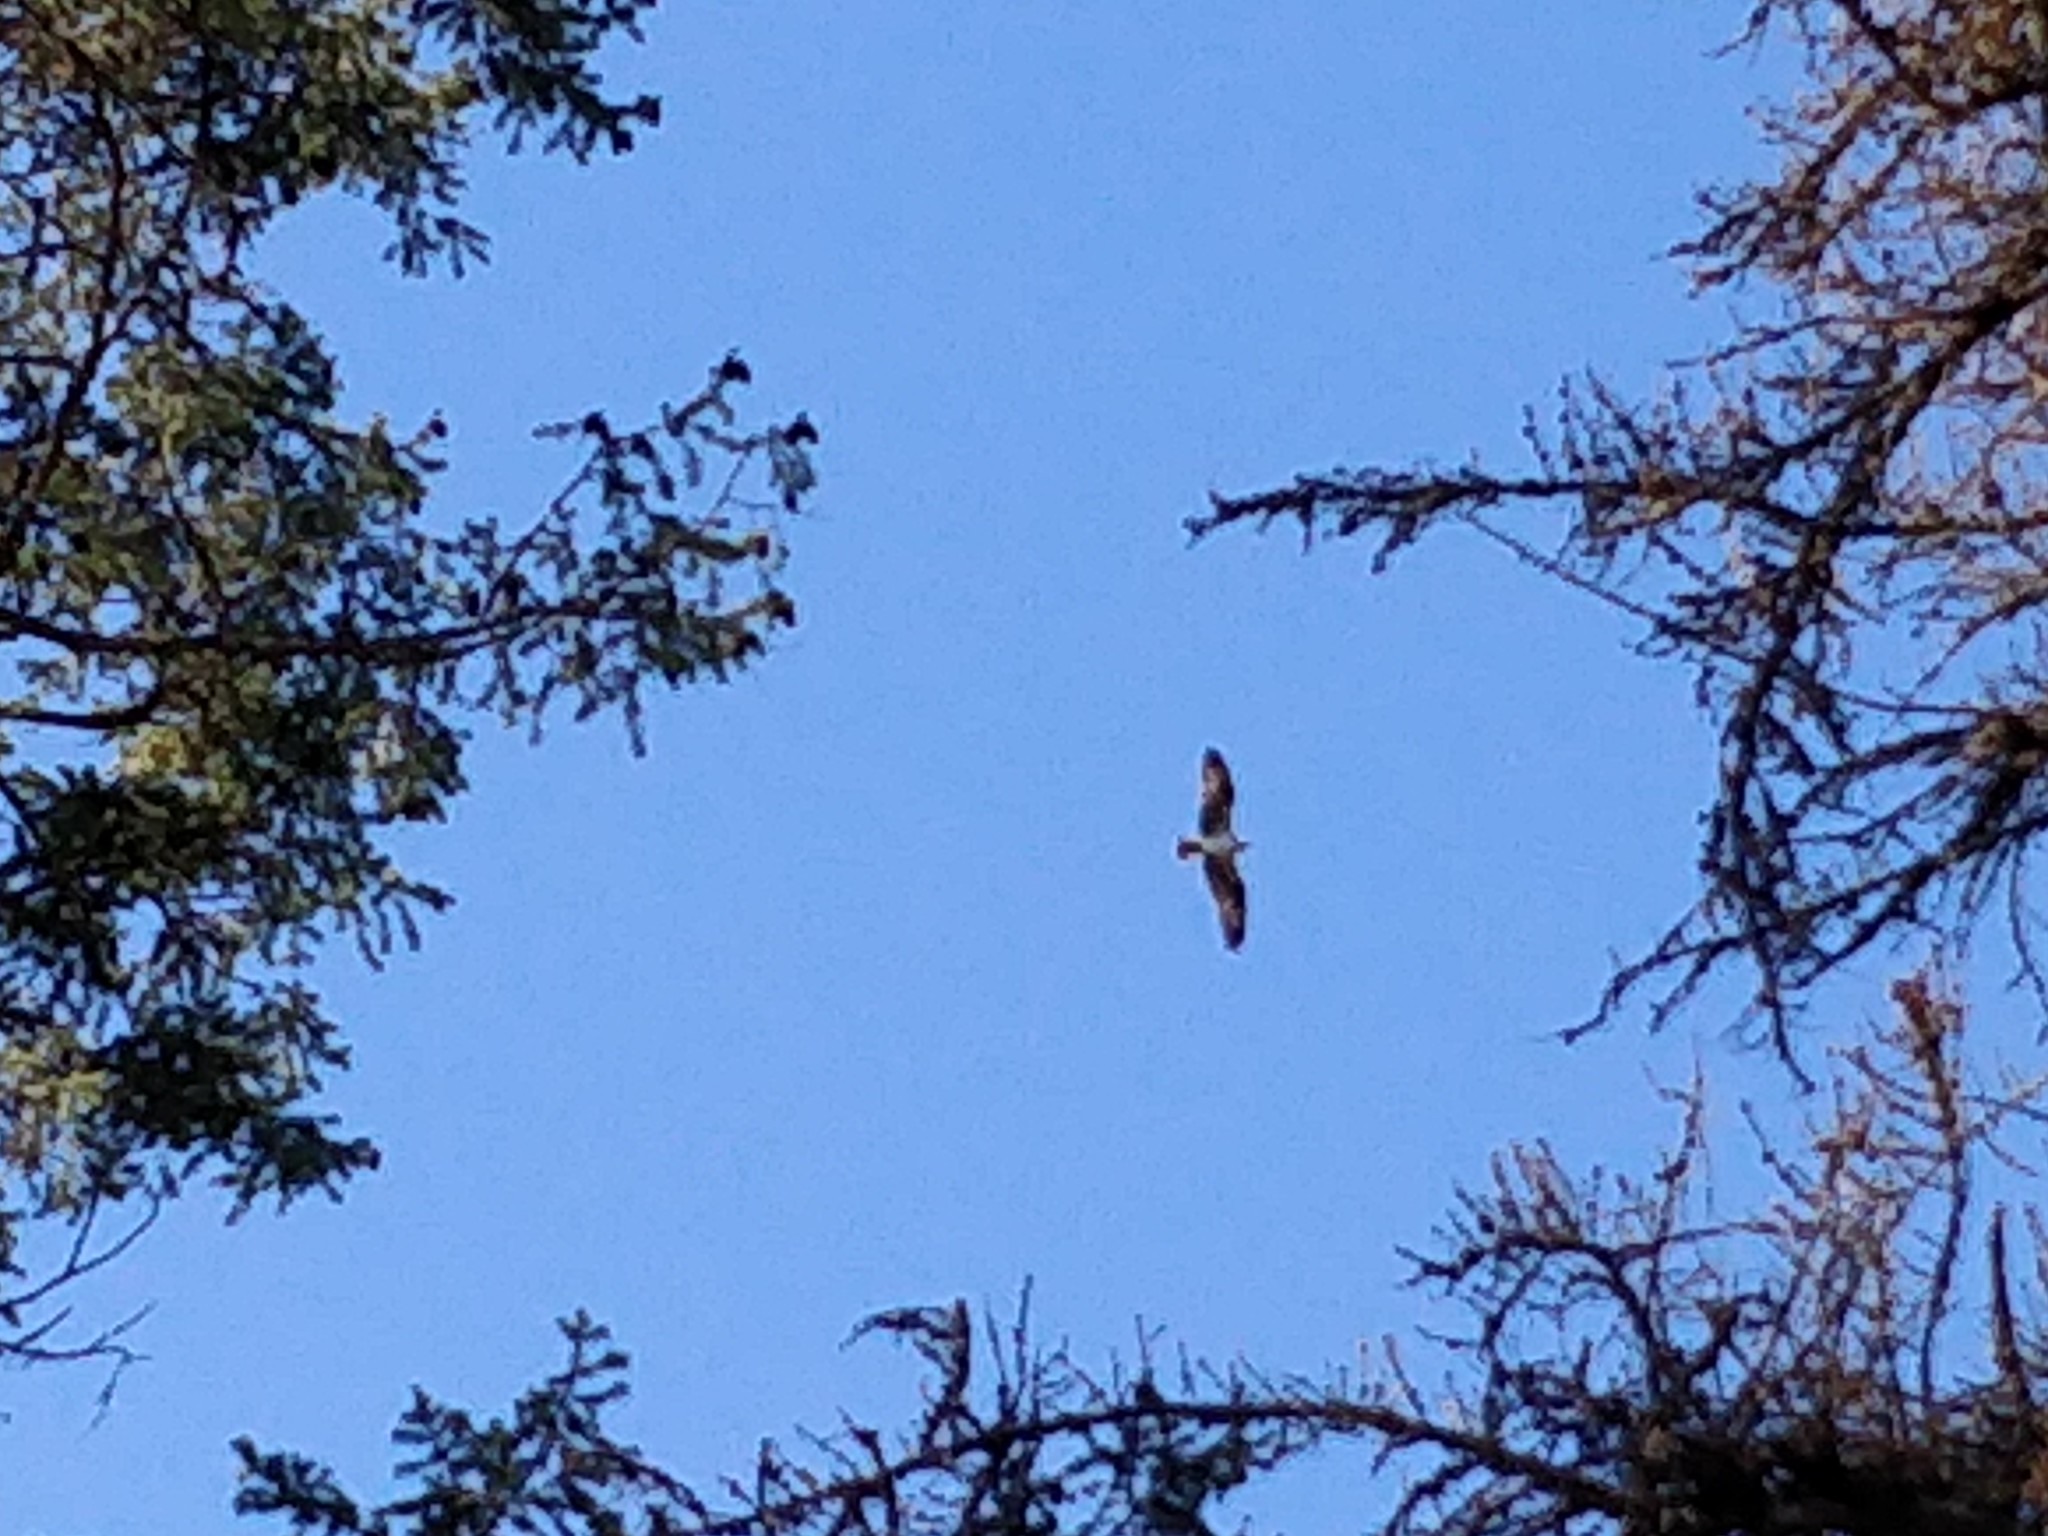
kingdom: Animalia
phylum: Chordata
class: Aves
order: Accipitriformes
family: Pandionidae
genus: Pandion
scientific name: Pandion haliaetus
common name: Osprey
